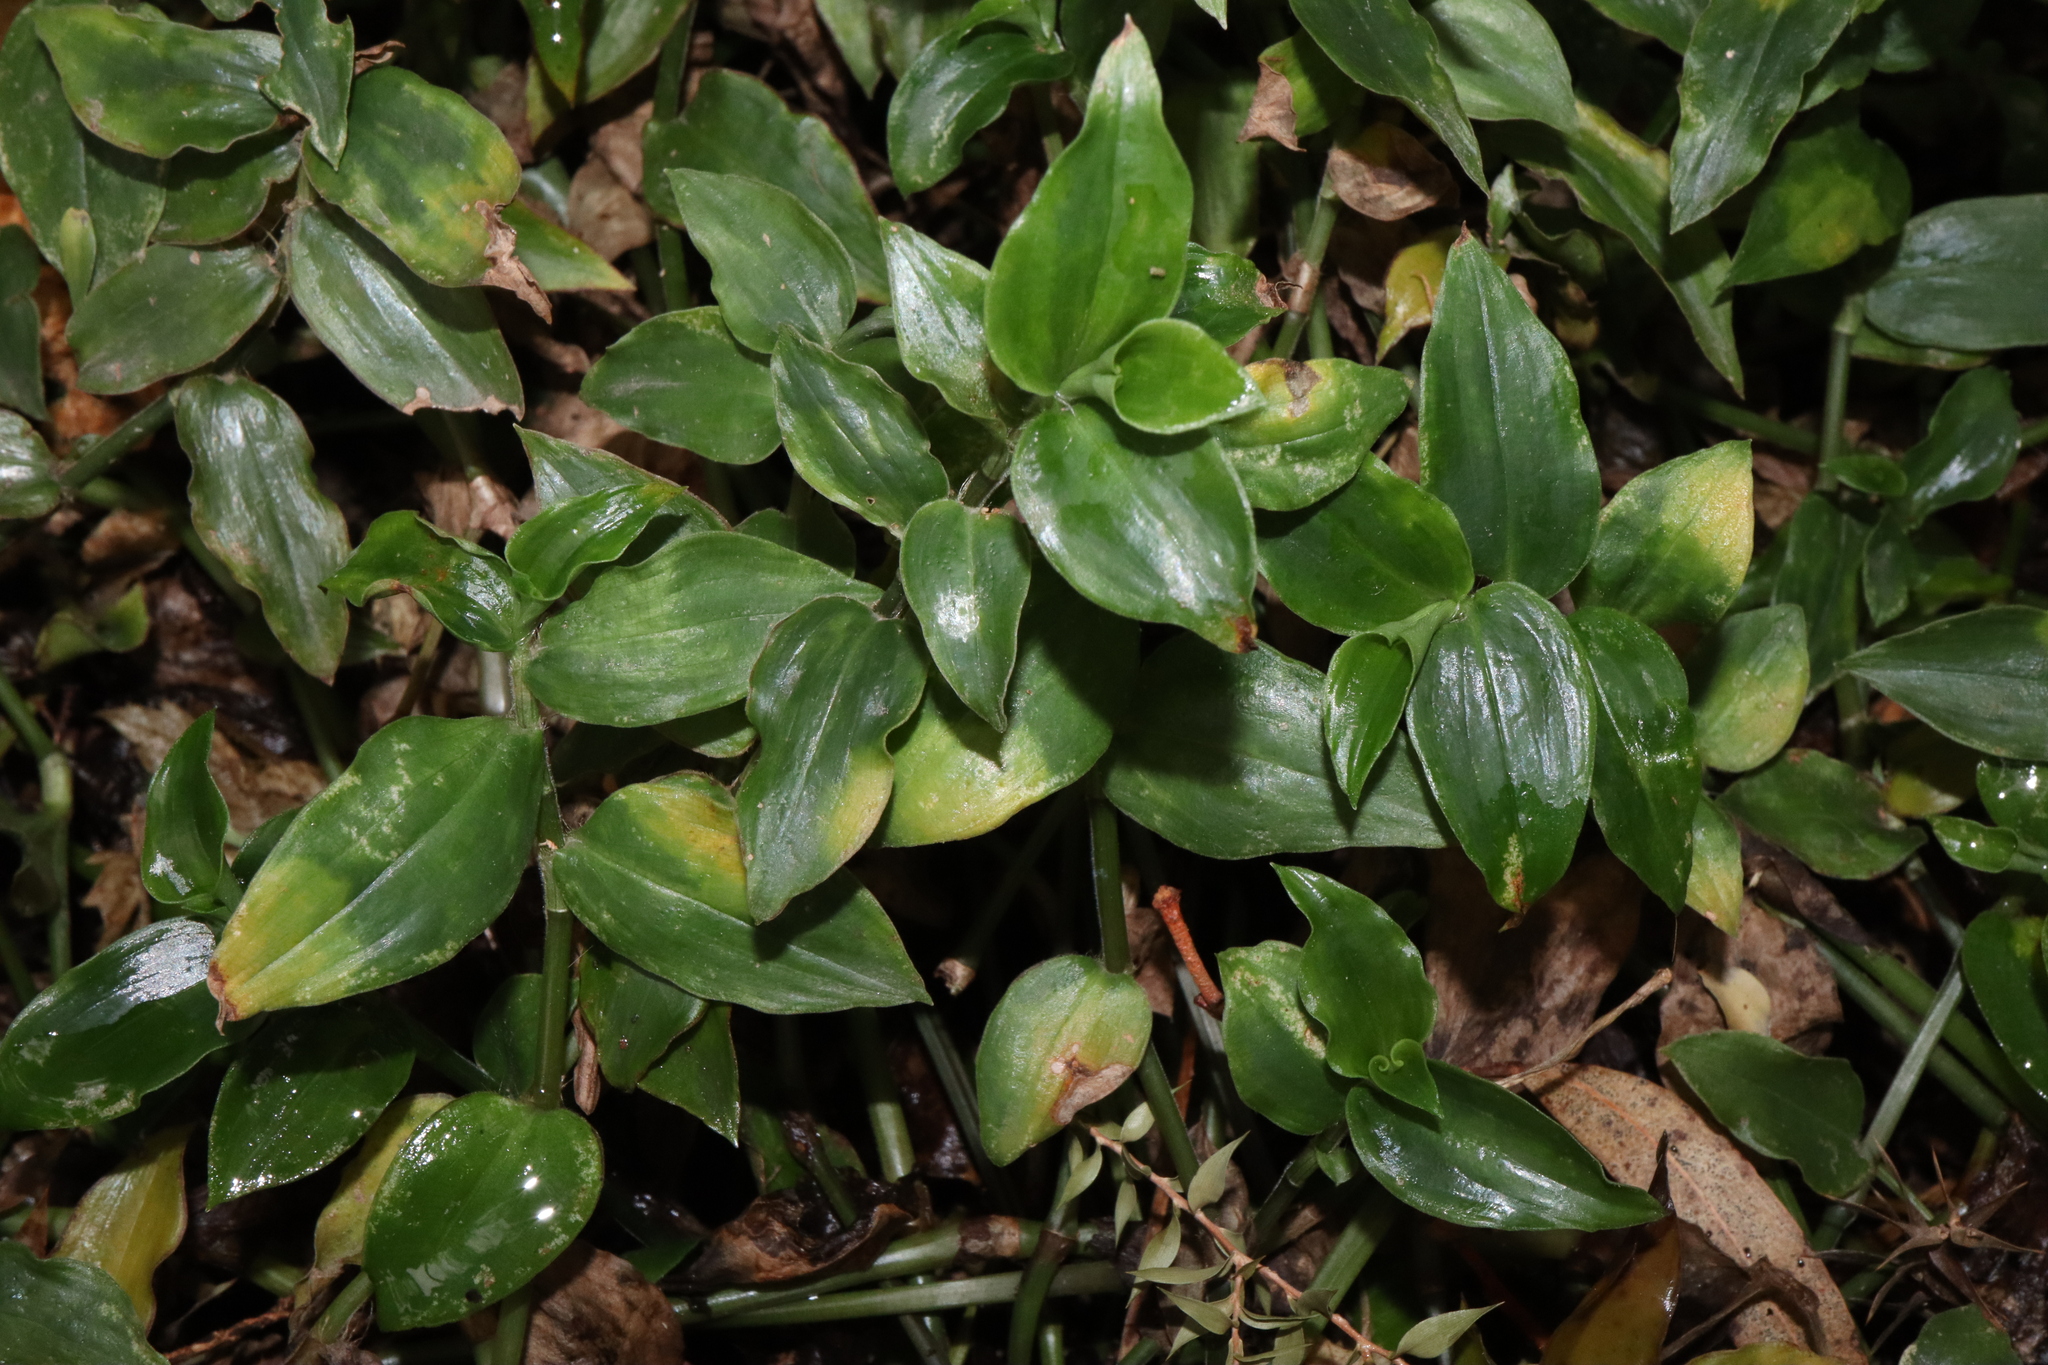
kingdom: Fungi
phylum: Basidiomycota
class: Exobasidiomycetes
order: Exobasidiales
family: Brachybasidiaceae
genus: Kordyana
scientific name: Kordyana brasiliensis
